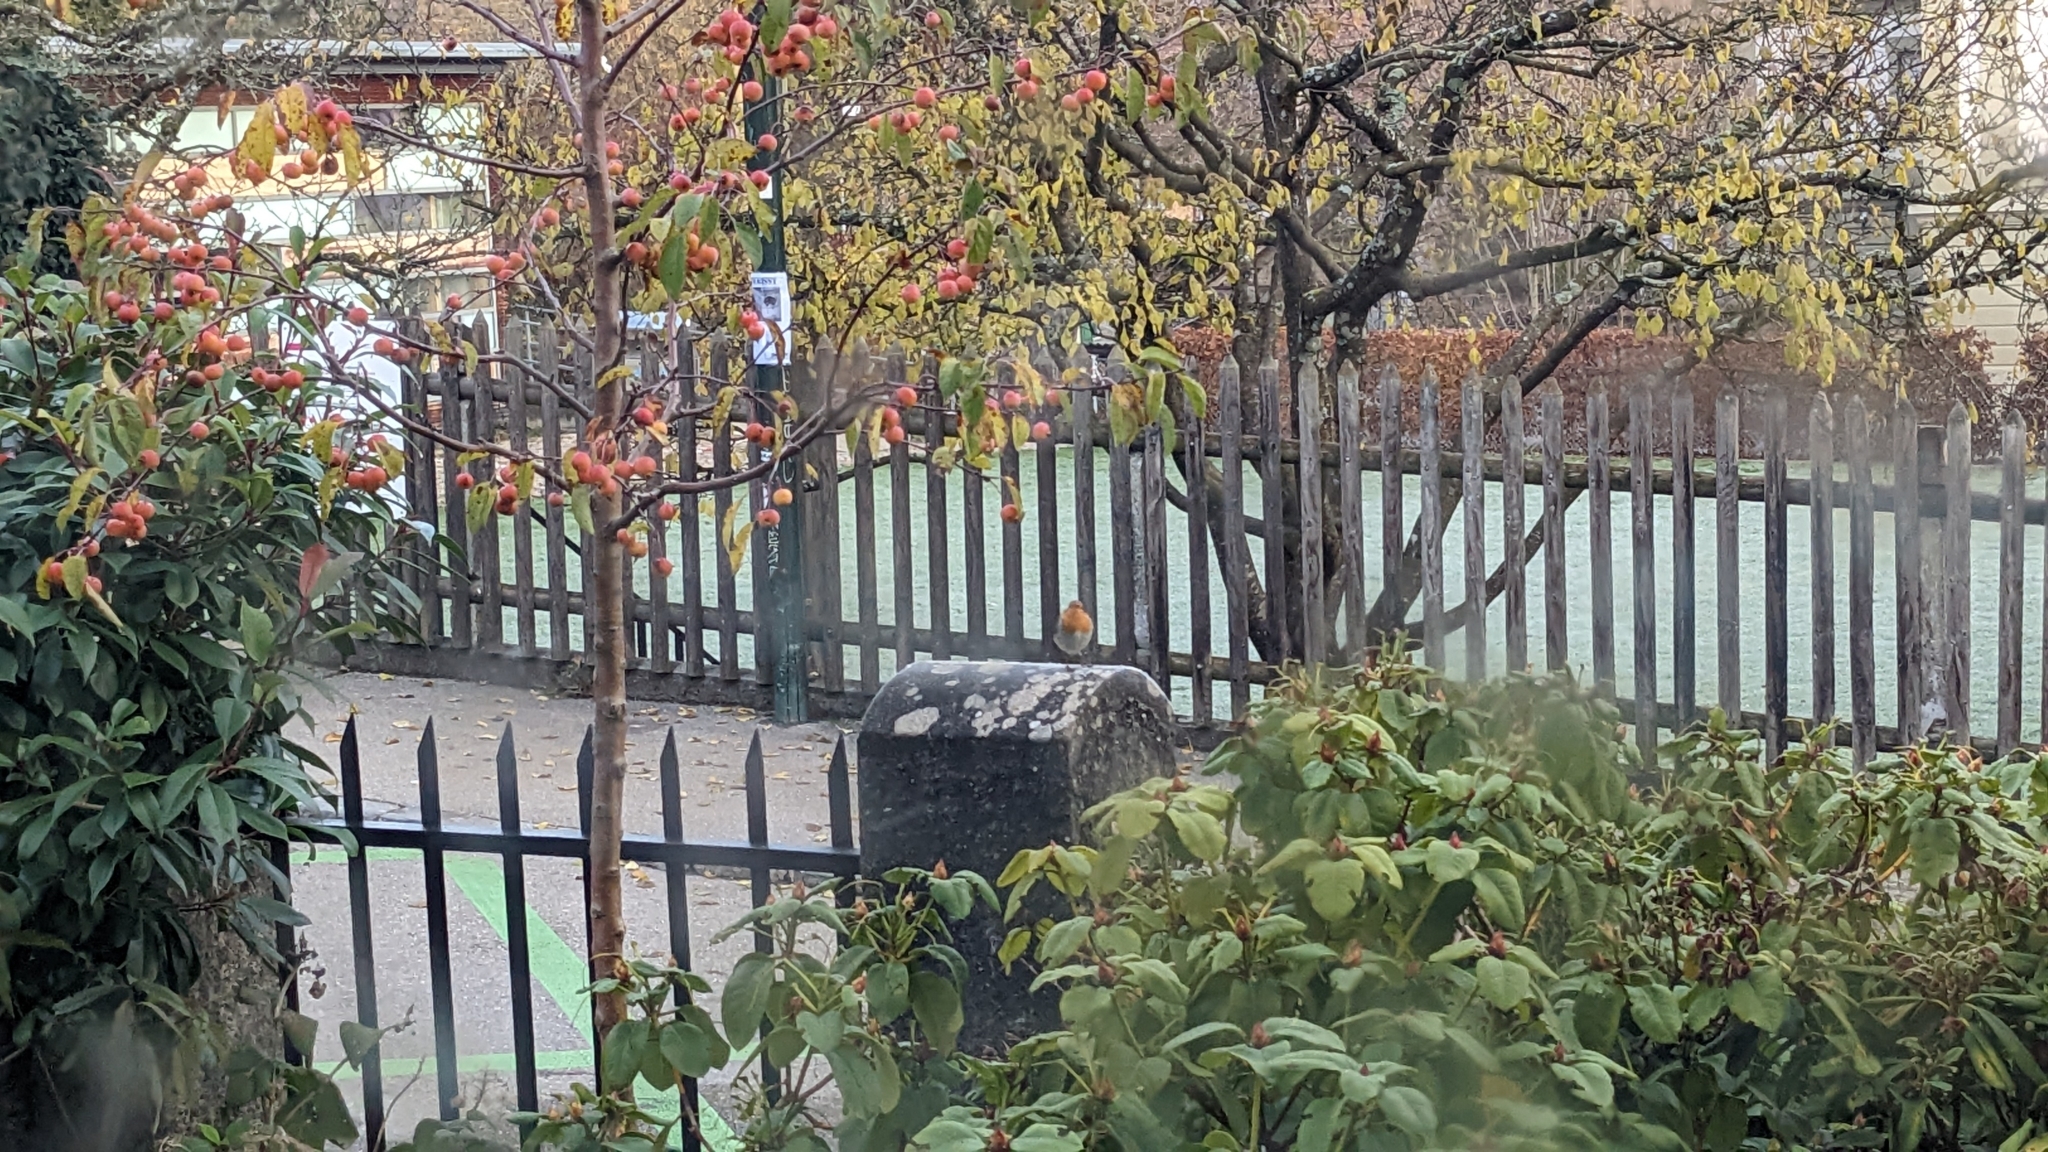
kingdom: Animalia
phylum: Chordata
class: Aves
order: Passeriformes
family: Muscicapidae
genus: Erithacus
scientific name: Erithacus rubecula
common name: European robin
